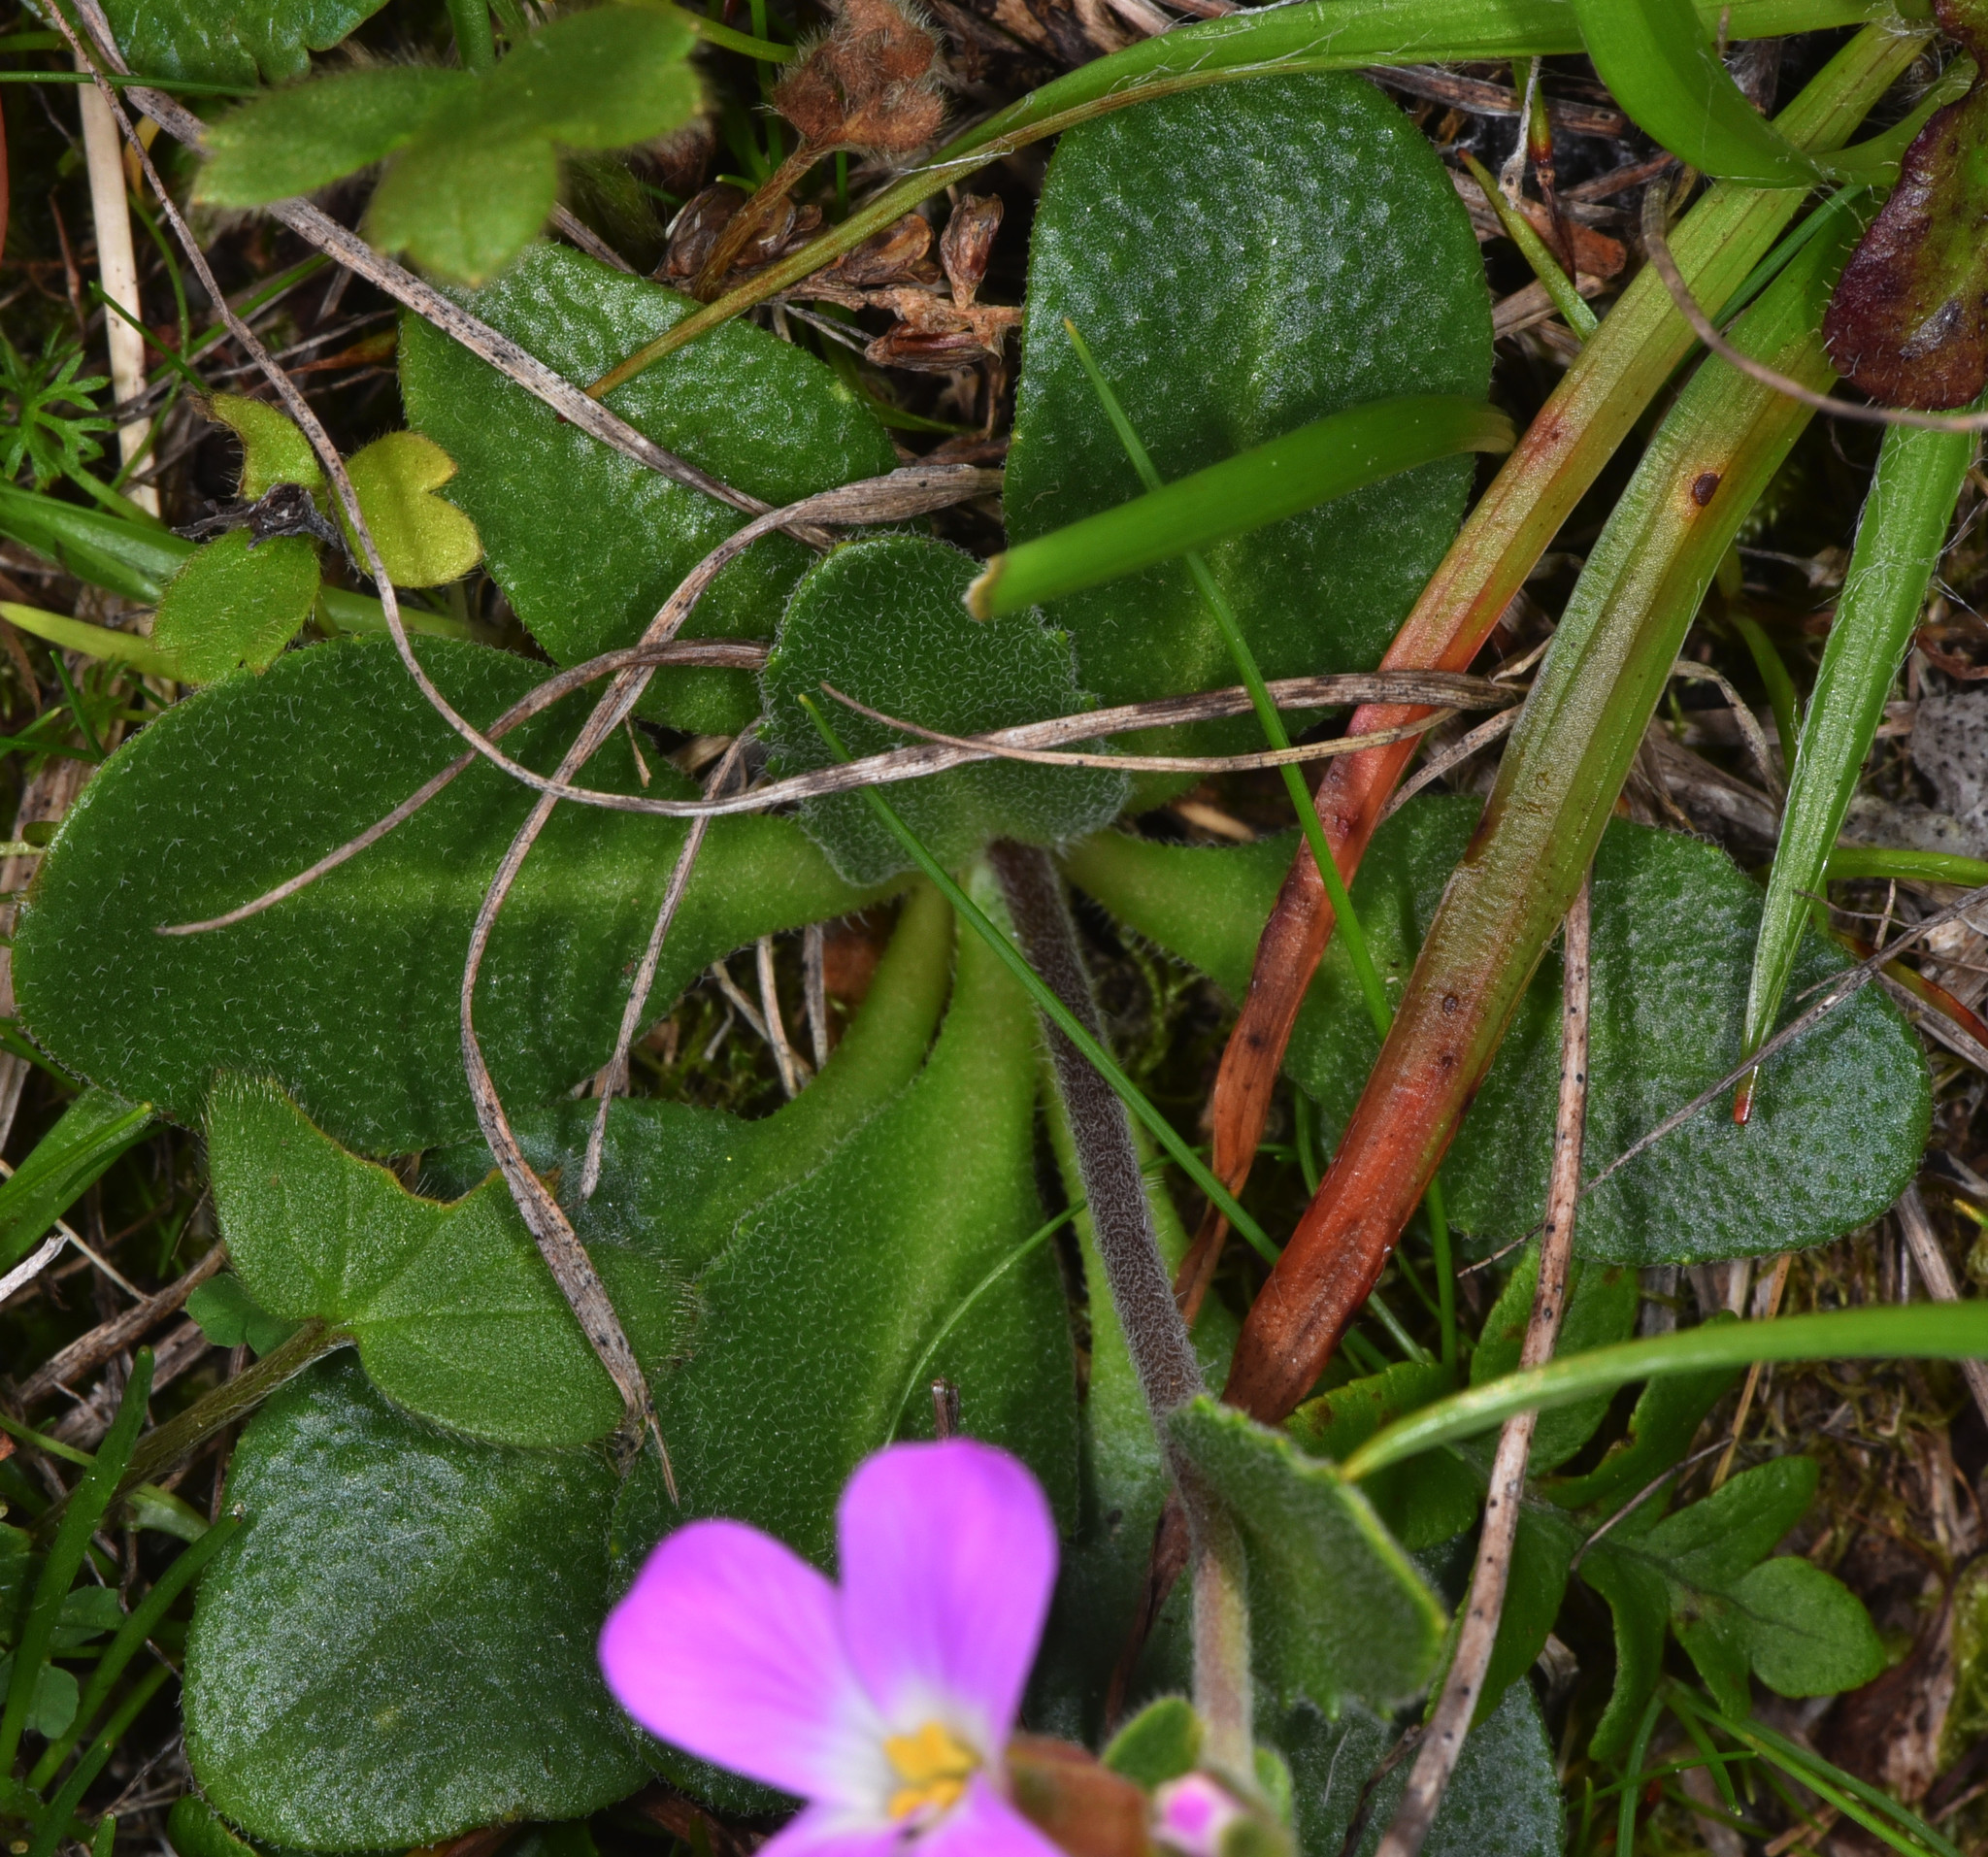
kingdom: Plantae
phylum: Tracheophyta
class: Magnoliopsida
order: Brassicales
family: Brassicaceae
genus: Arabis
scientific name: Arabis blepharophylla
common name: Rose rockcress
